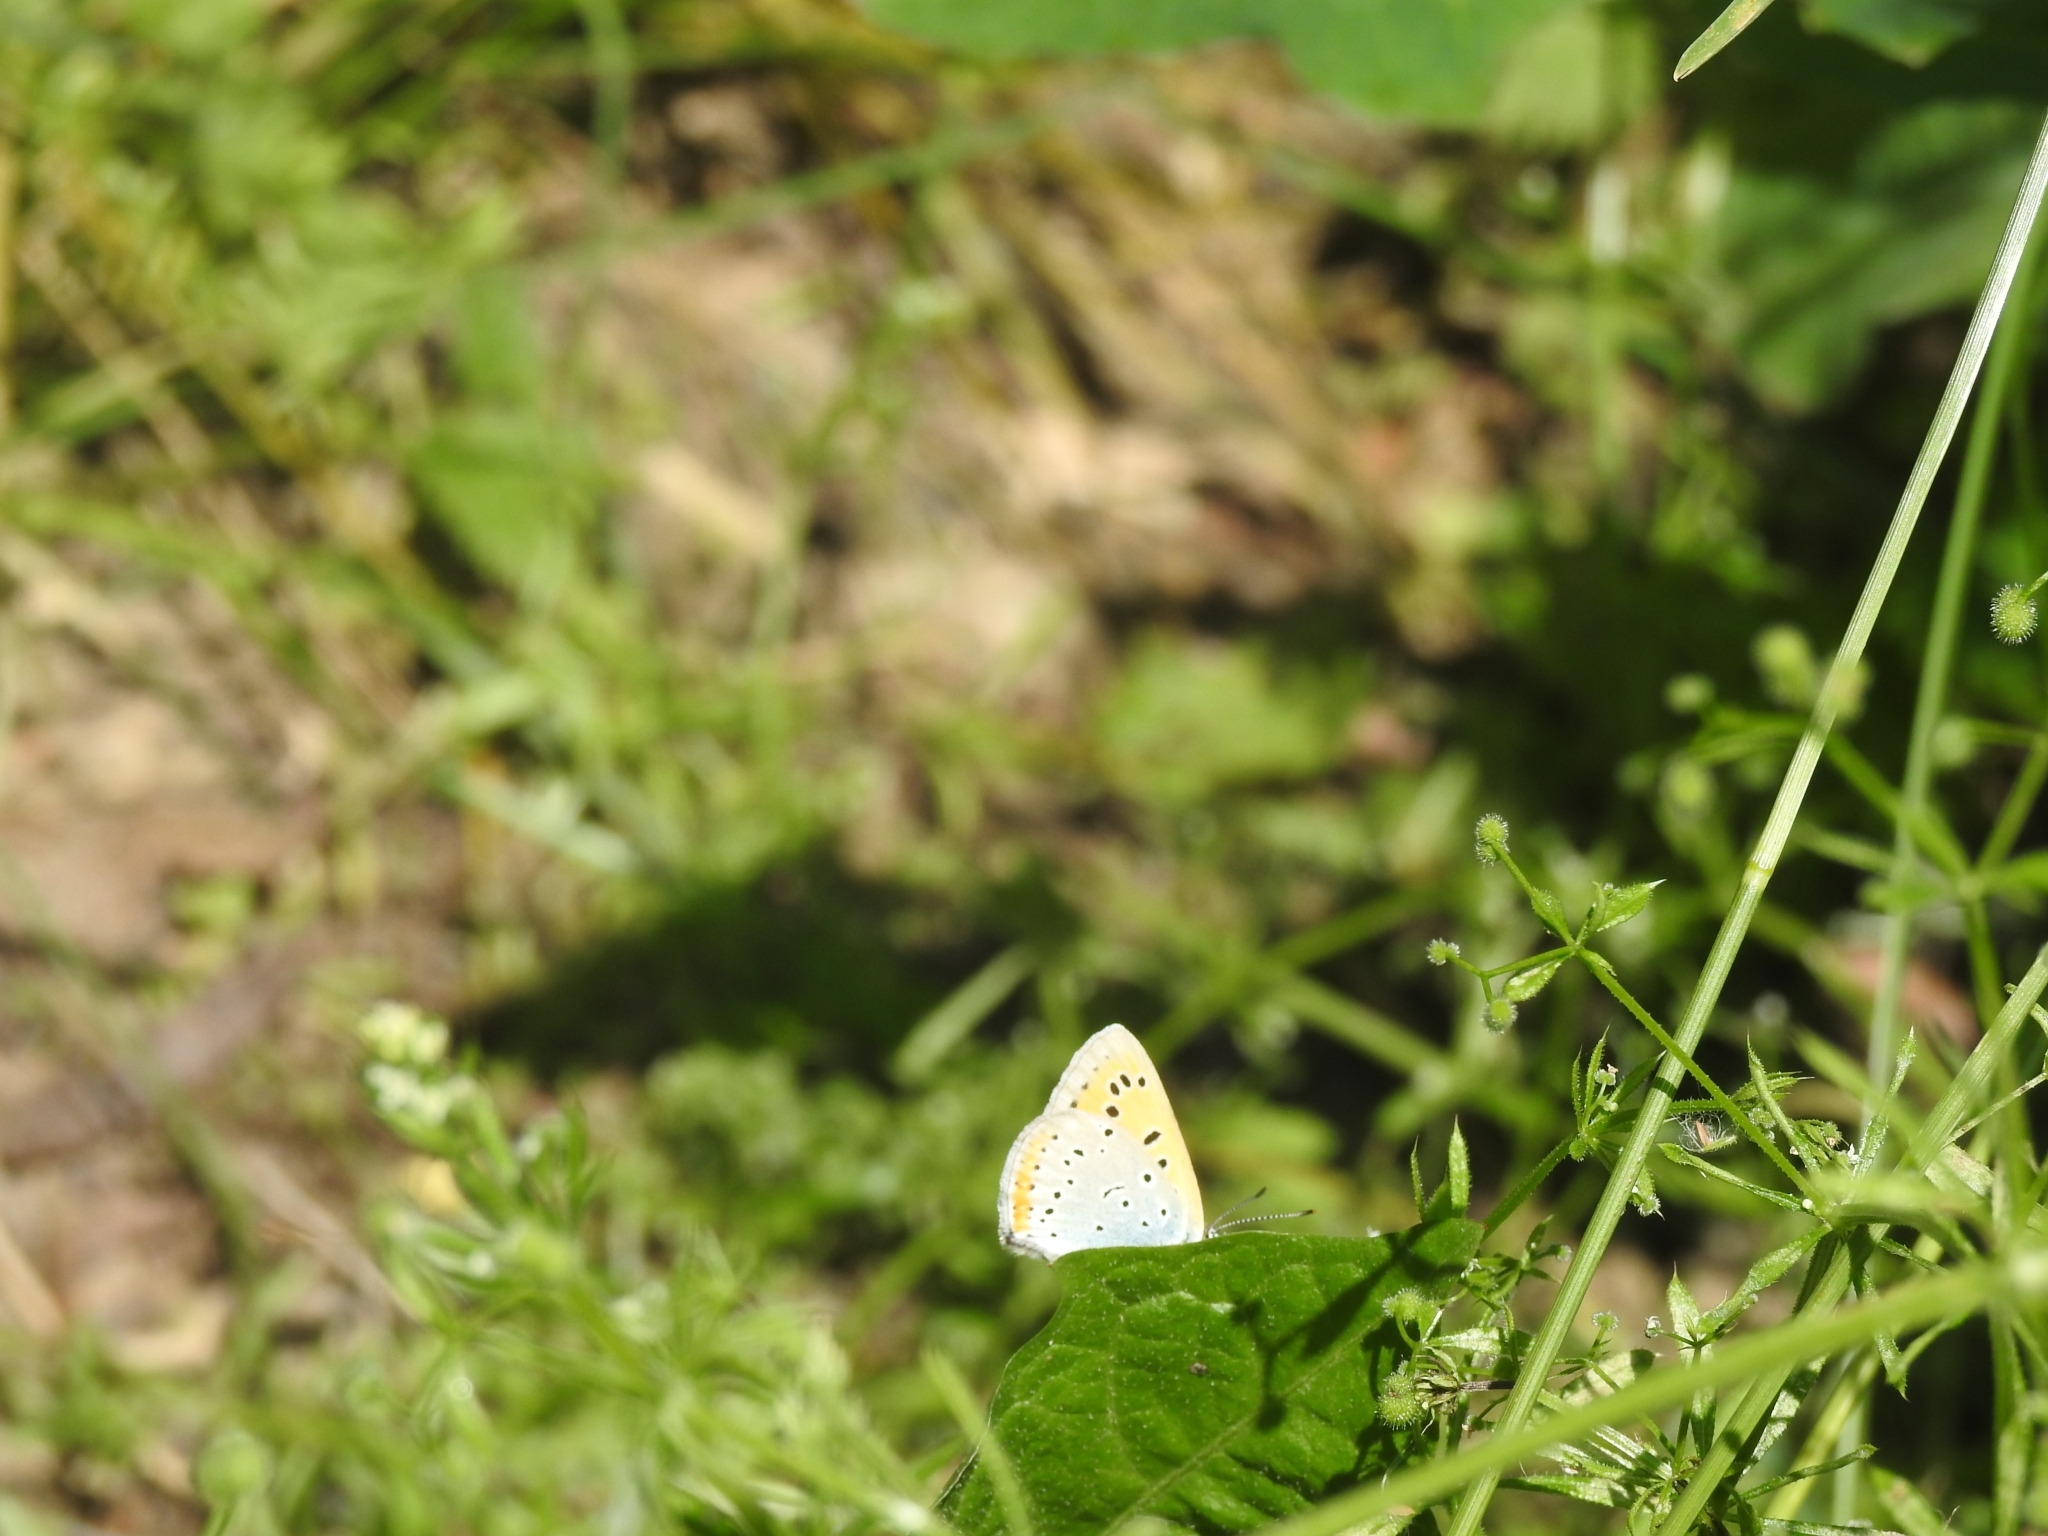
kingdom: Animalia
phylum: Arthropoda
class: Insecta
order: Lepidoptera
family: Lycaenidae
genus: Lycaena
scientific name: Lycaena dispar
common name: Large copper
